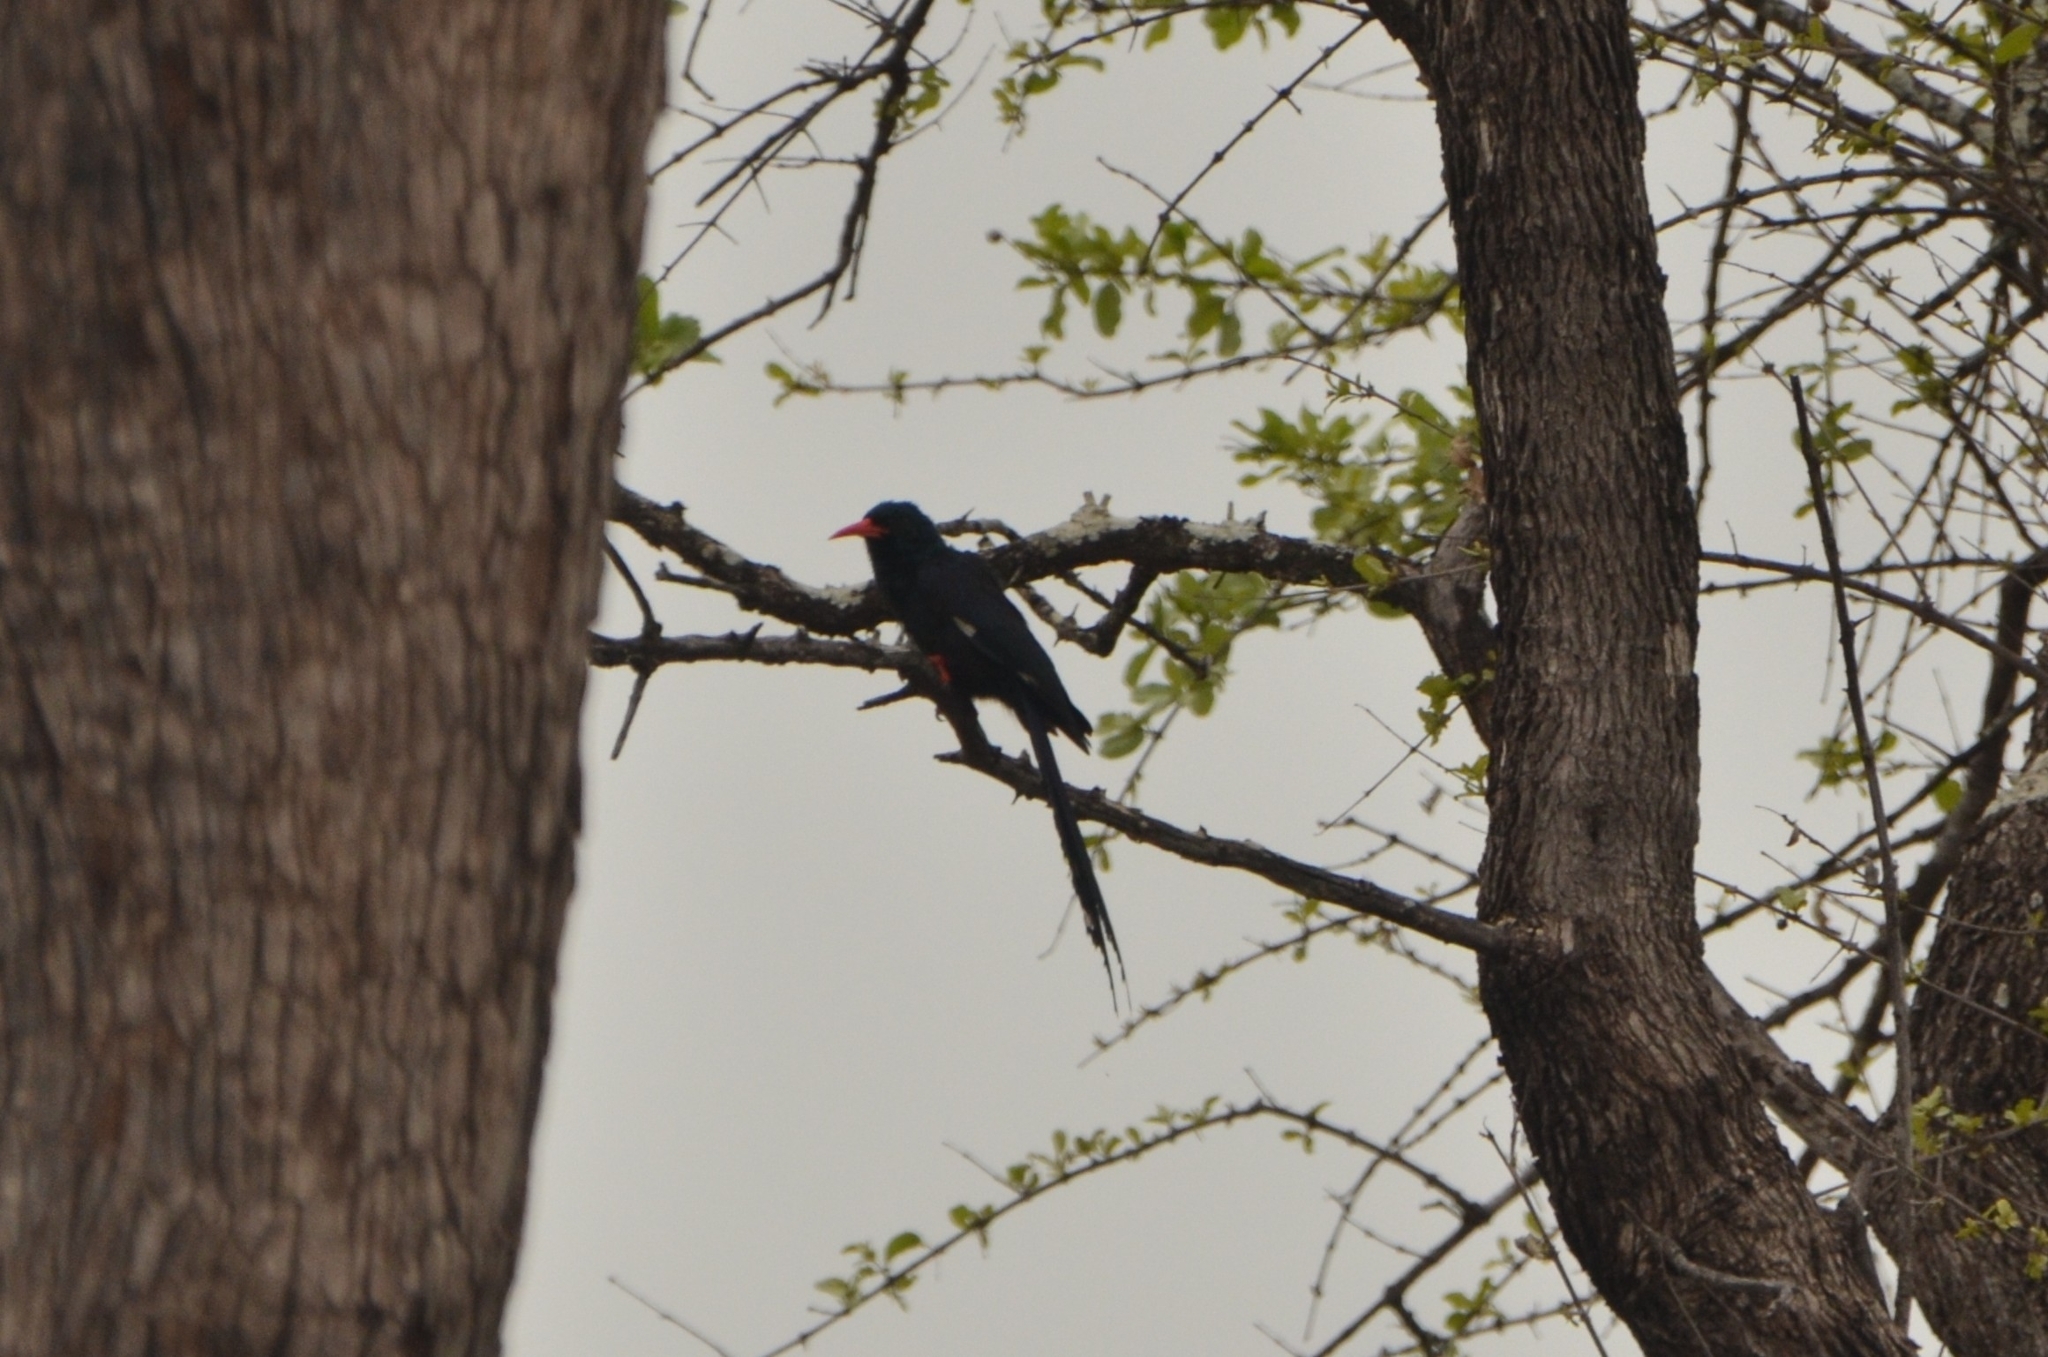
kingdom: Animalia
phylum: Chordata
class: Aves
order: Bucerotiformes
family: Phoeniculidae
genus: Phoeniculus
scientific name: Phoeniculus purpureus
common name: Green woodhoopoe
